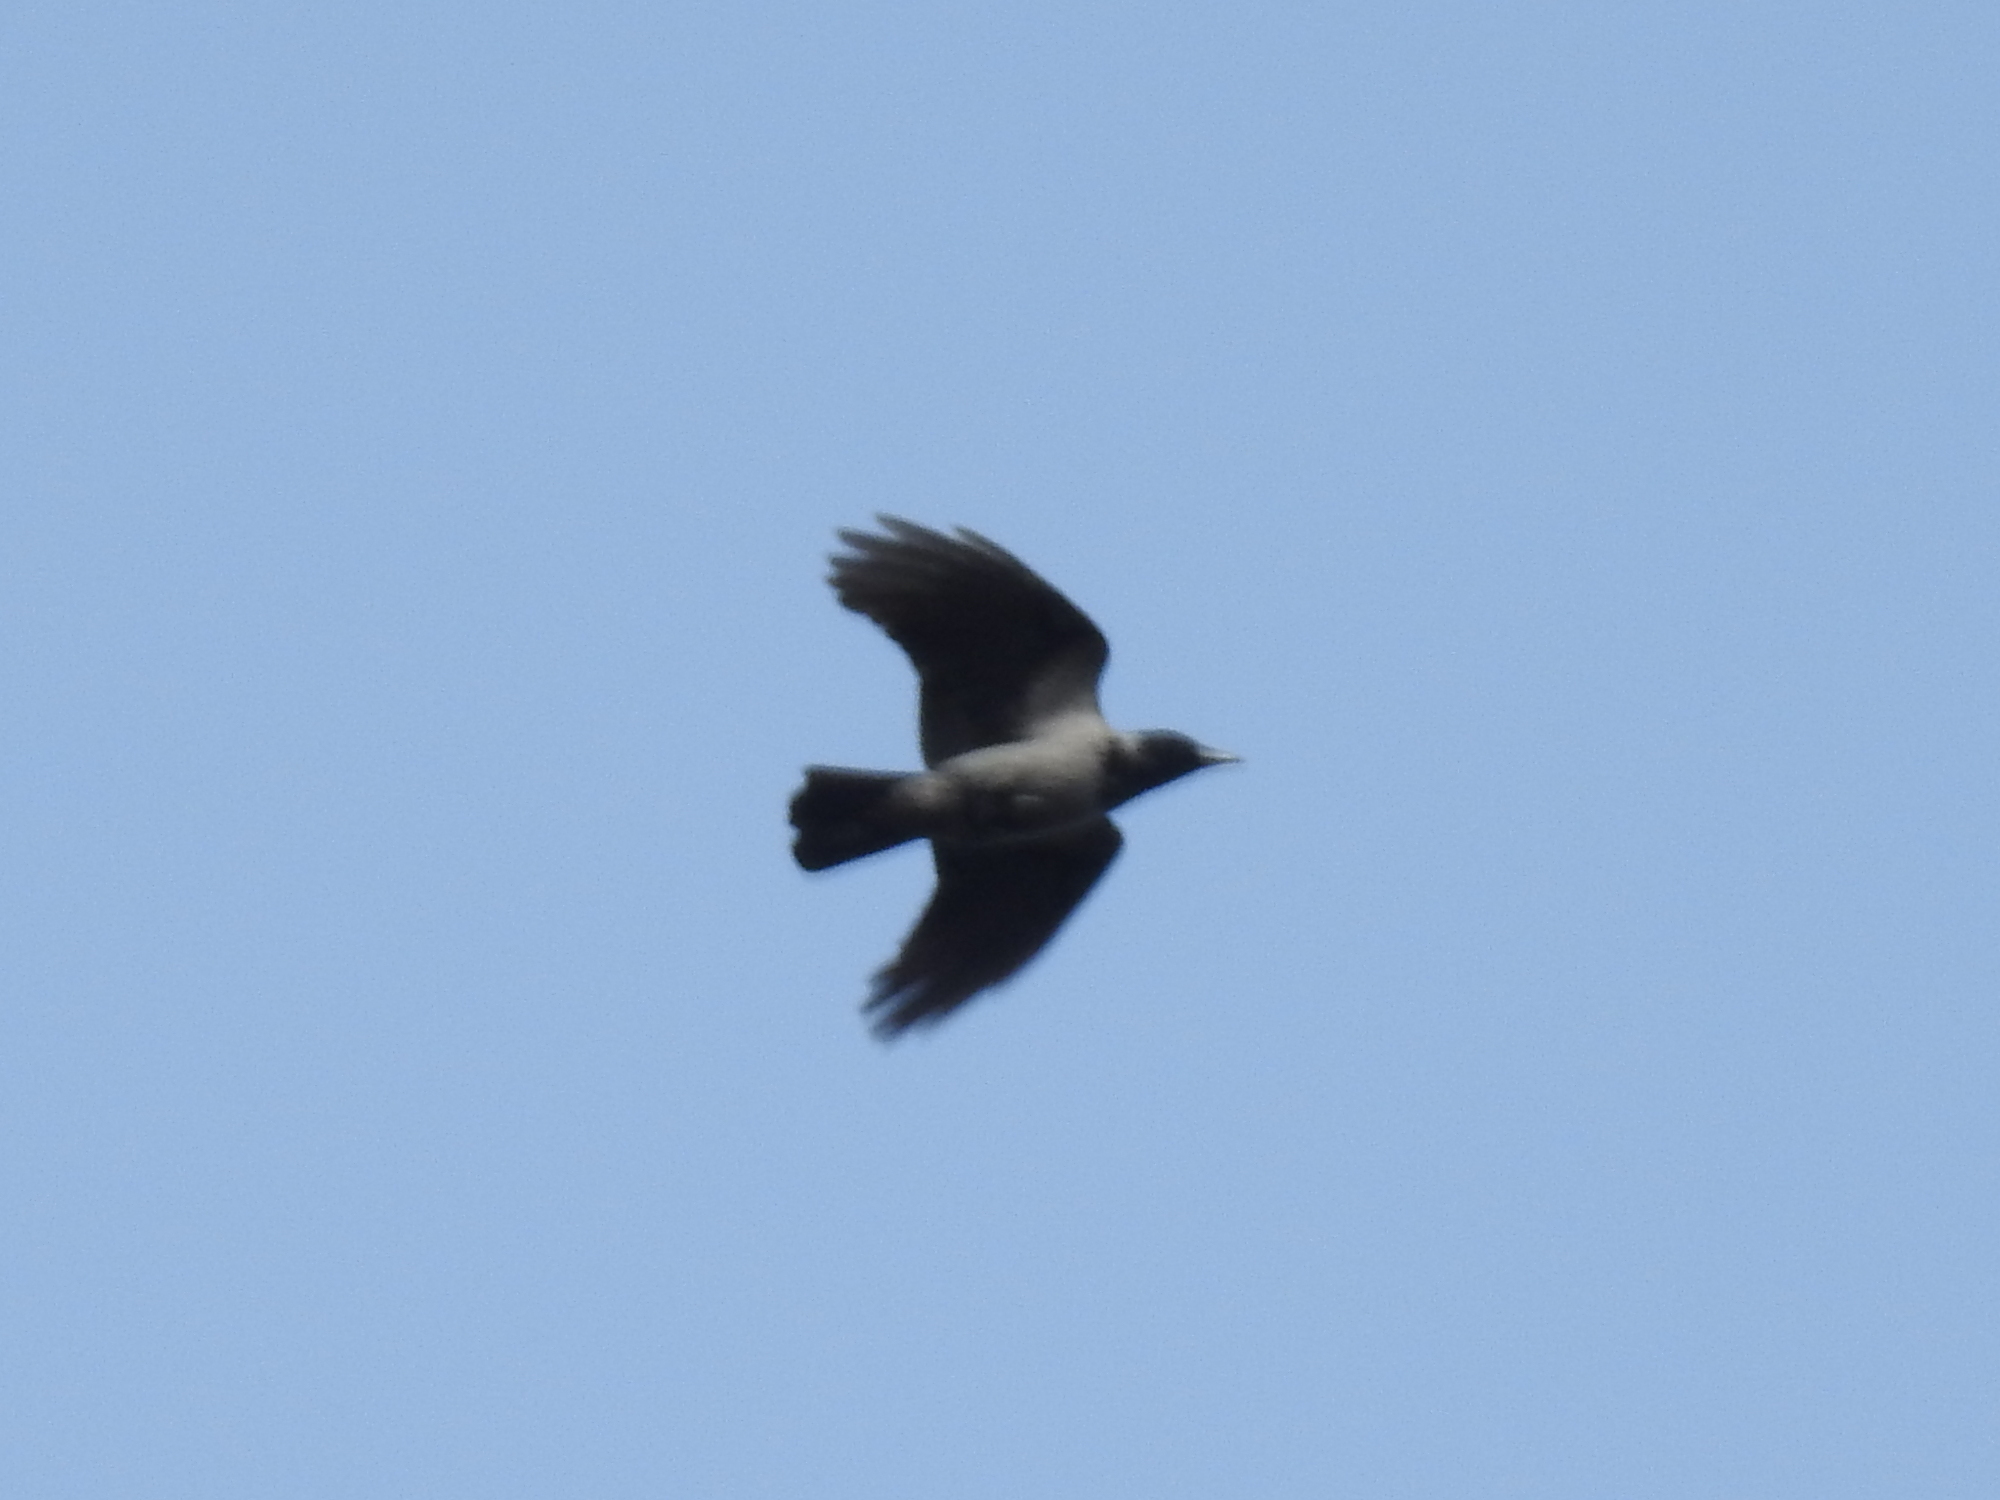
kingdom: Animalia
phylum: Chordata
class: Aves
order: Passeriformes
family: Corvidae
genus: Corvus
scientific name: Corvus cornix
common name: Hooded crow
